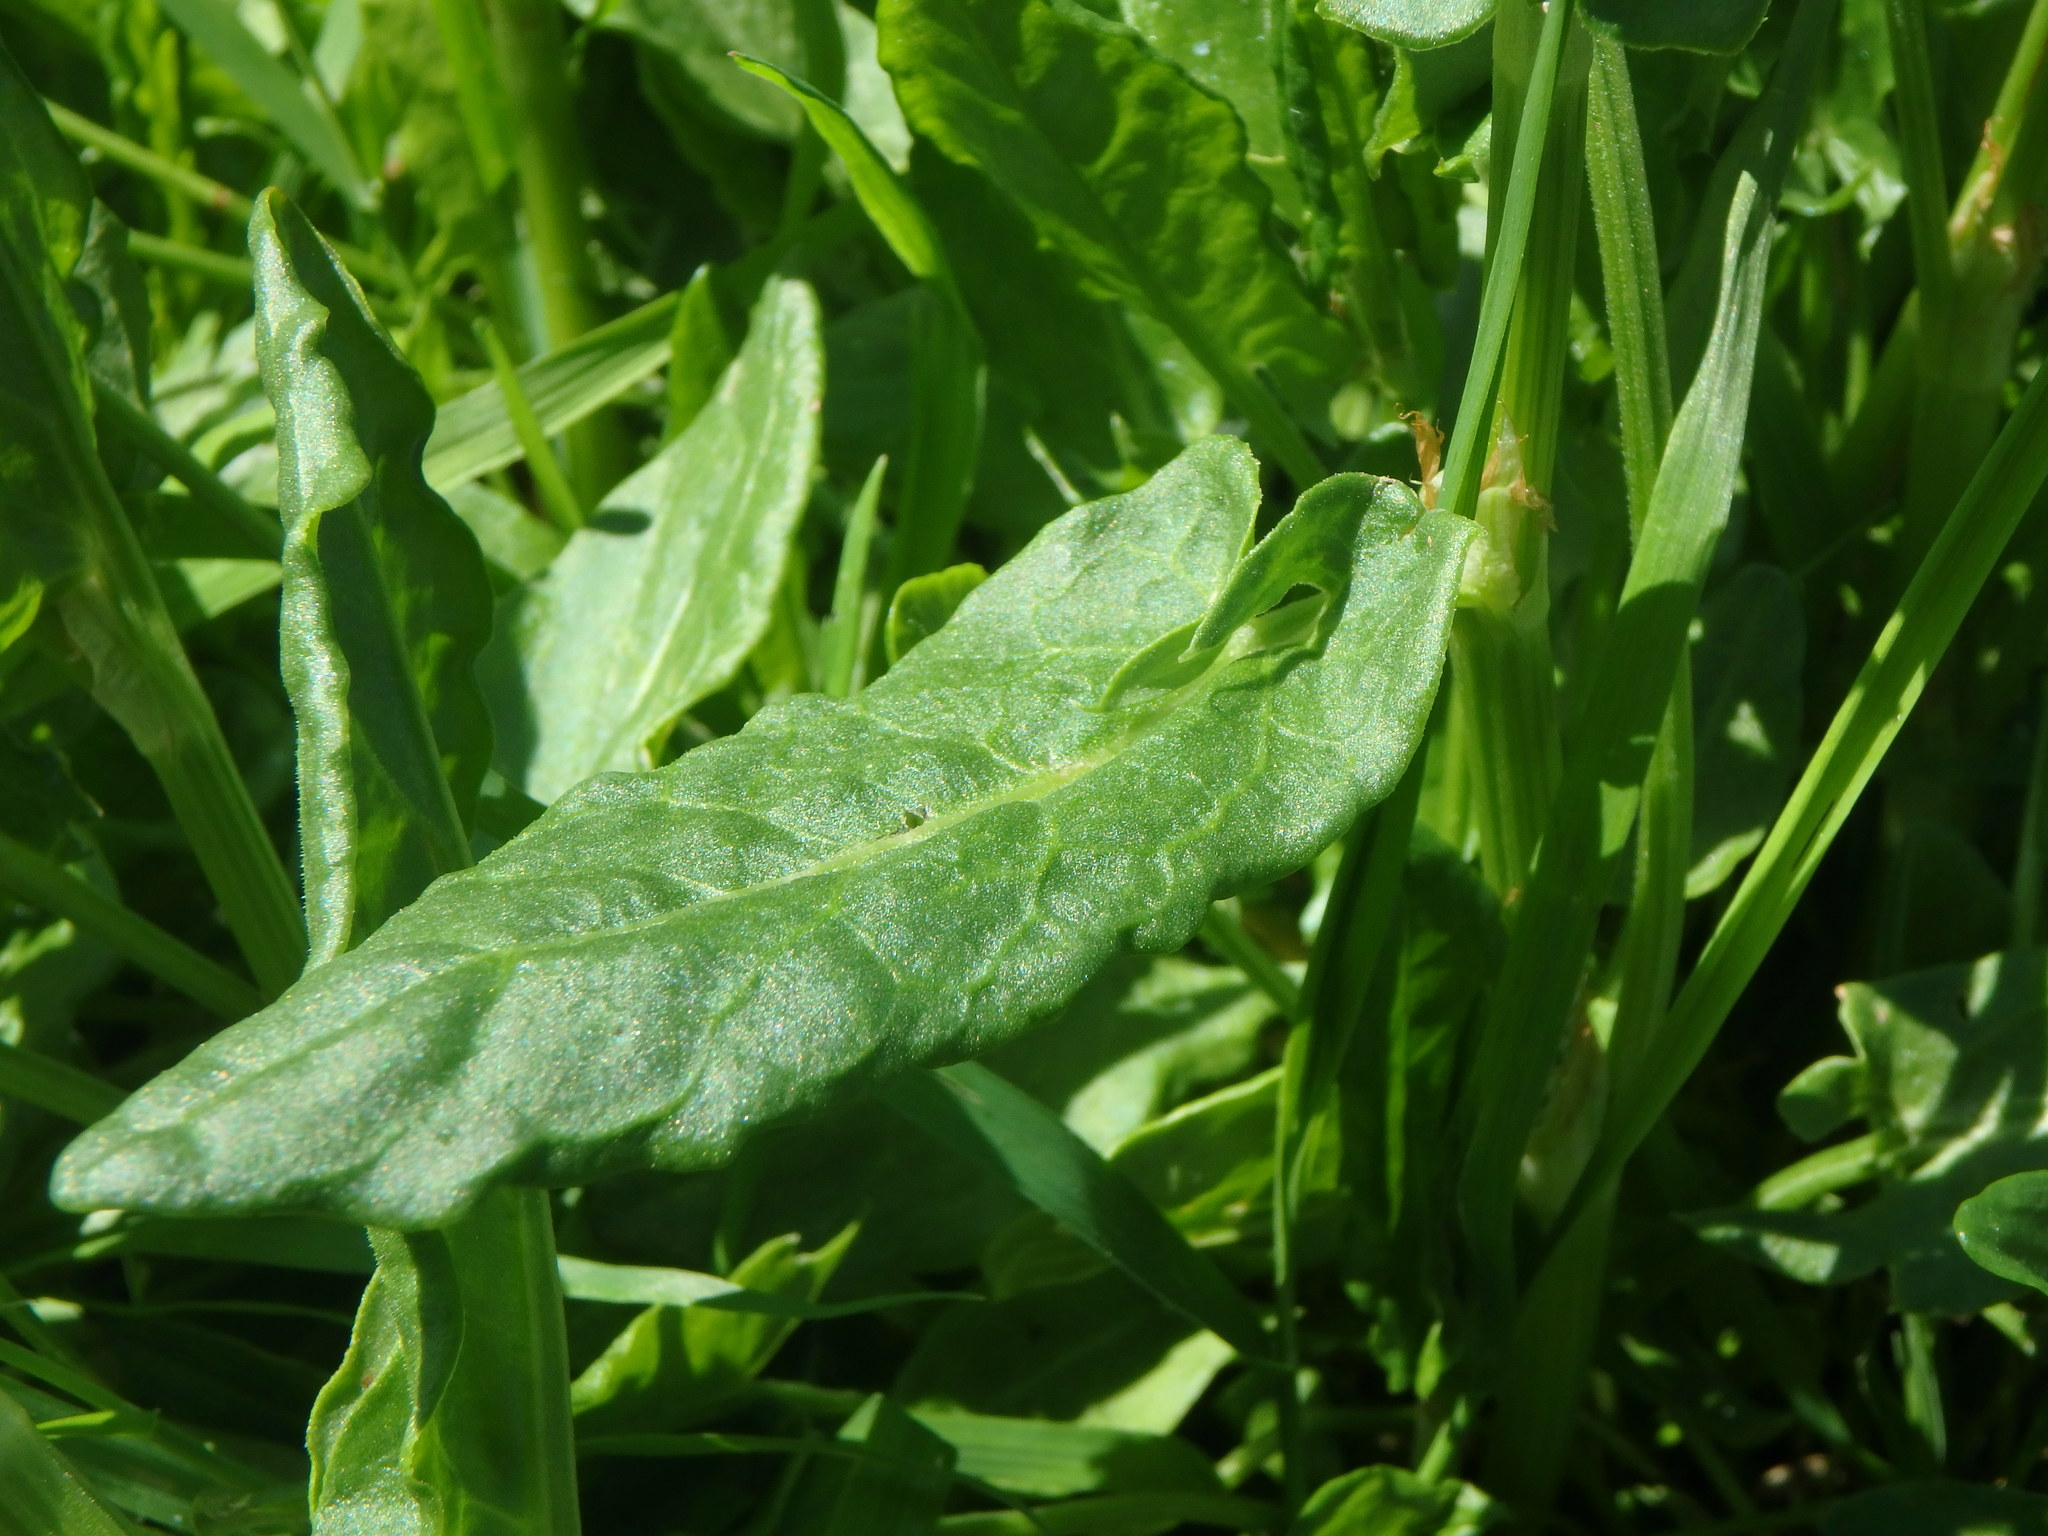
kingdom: Plantae
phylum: Tracheophyta
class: Magnoliopsida
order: Caryophyllales
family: Polygonaceae
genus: Rumex
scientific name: Rumex acetosa
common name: Garden sorrel
